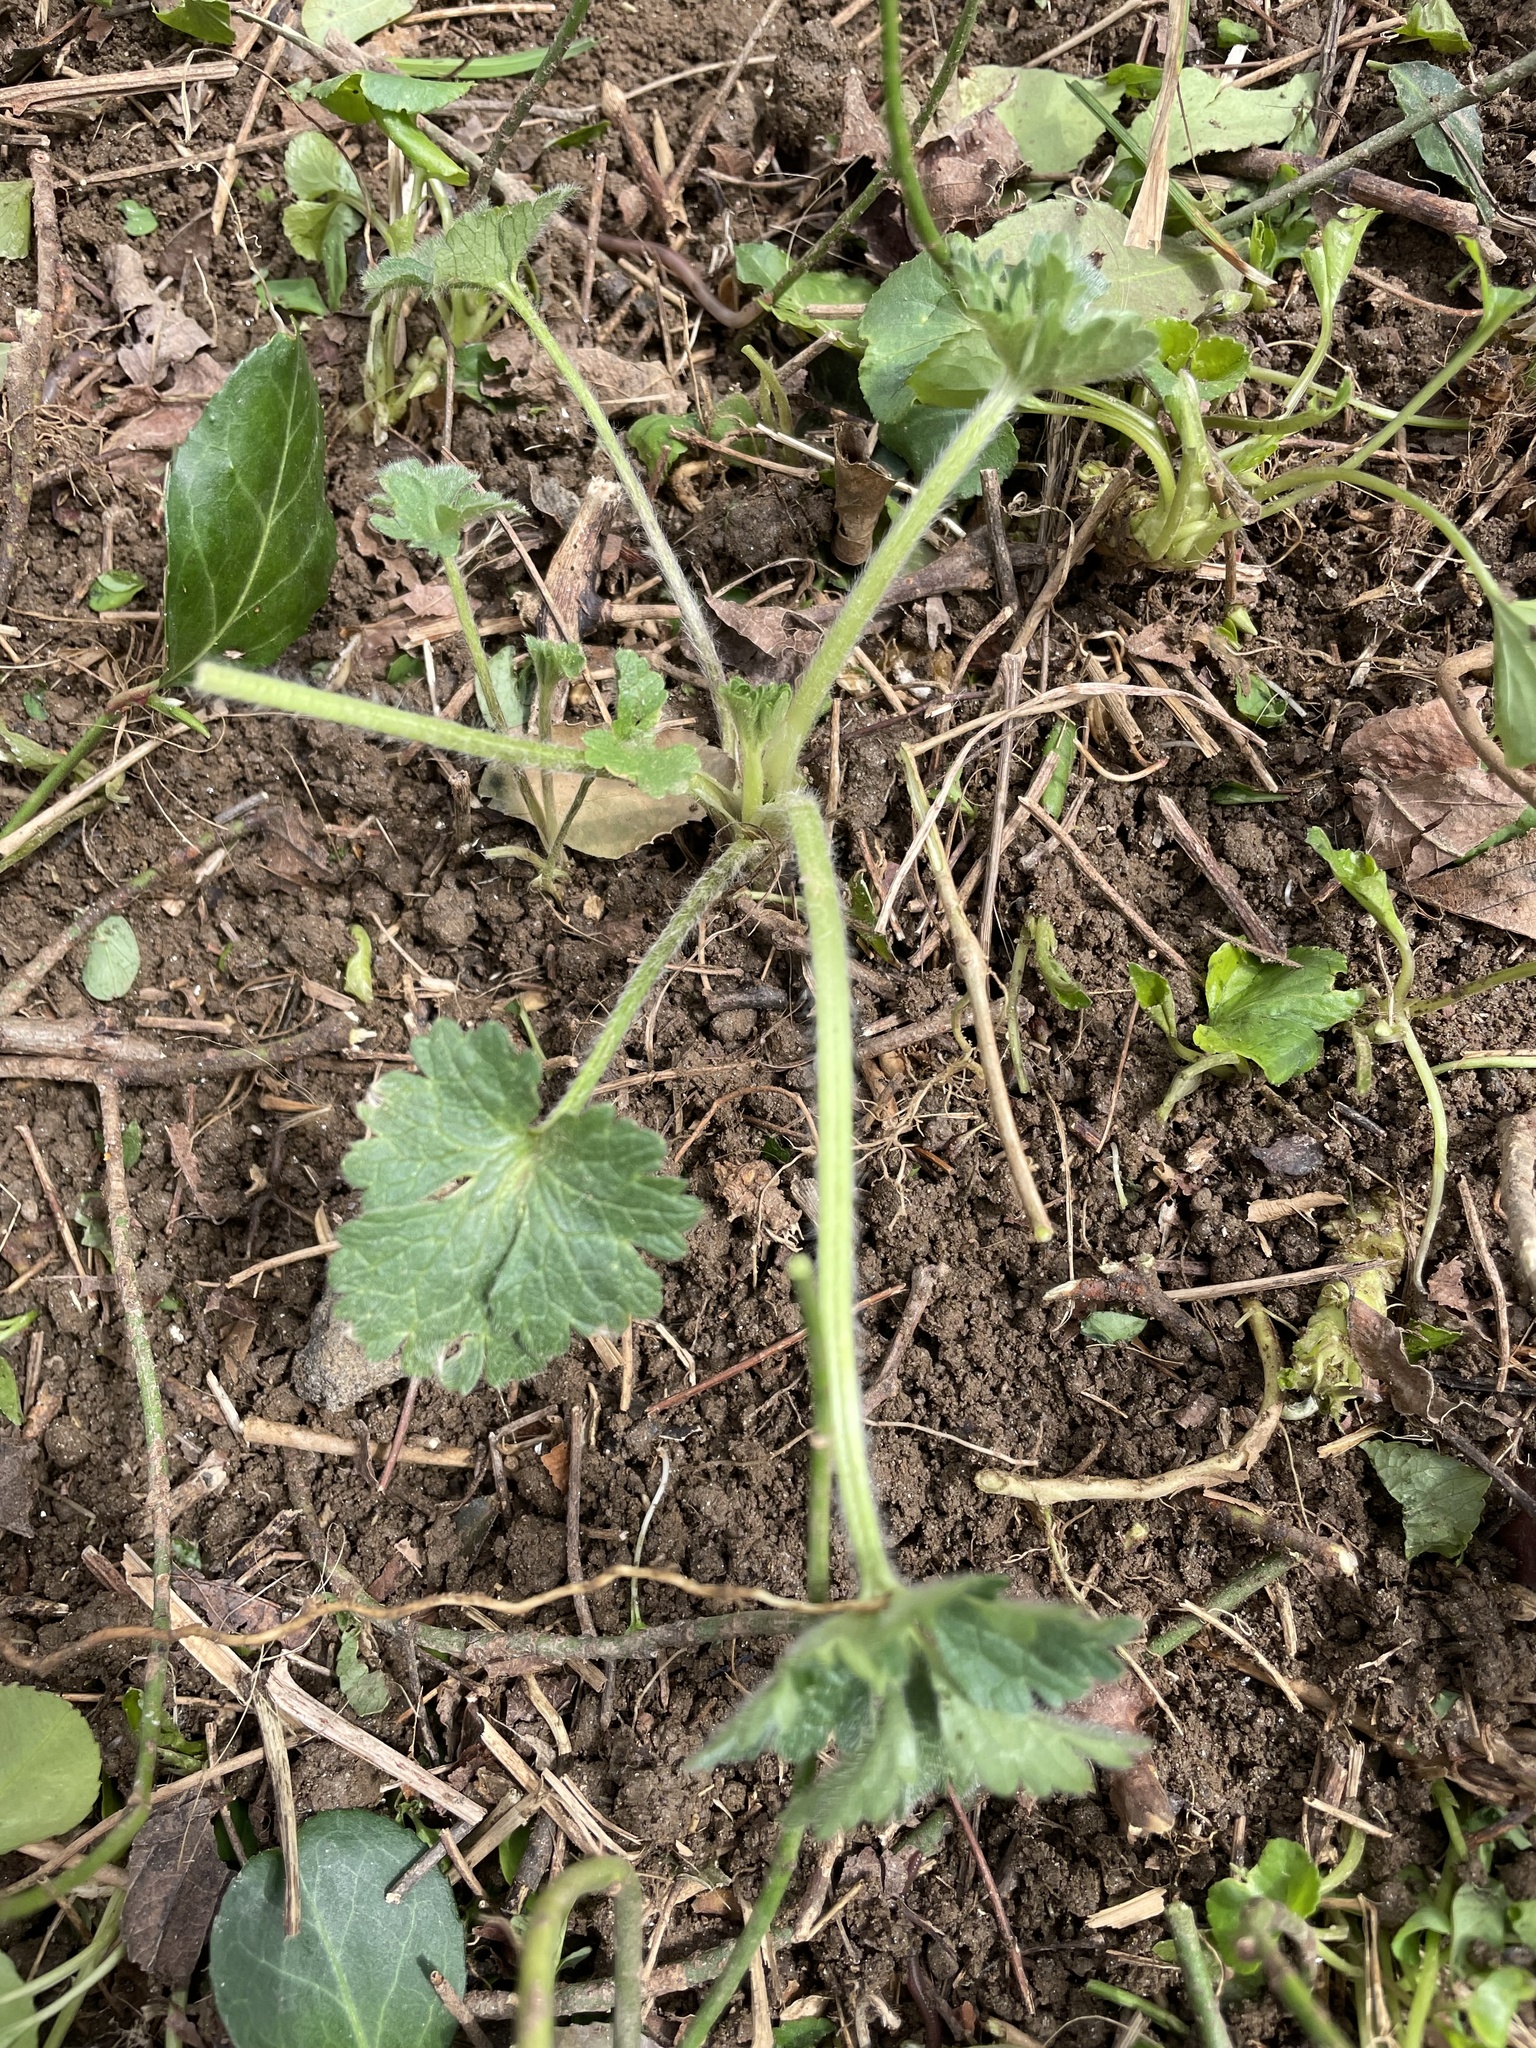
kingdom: Plantae
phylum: Tracheophyta
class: Magnoliopsida
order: Ranunculales
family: Ranunculaceae
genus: Ranunculus
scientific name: Ranunculus bulbosus
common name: Bulbous buttercup
